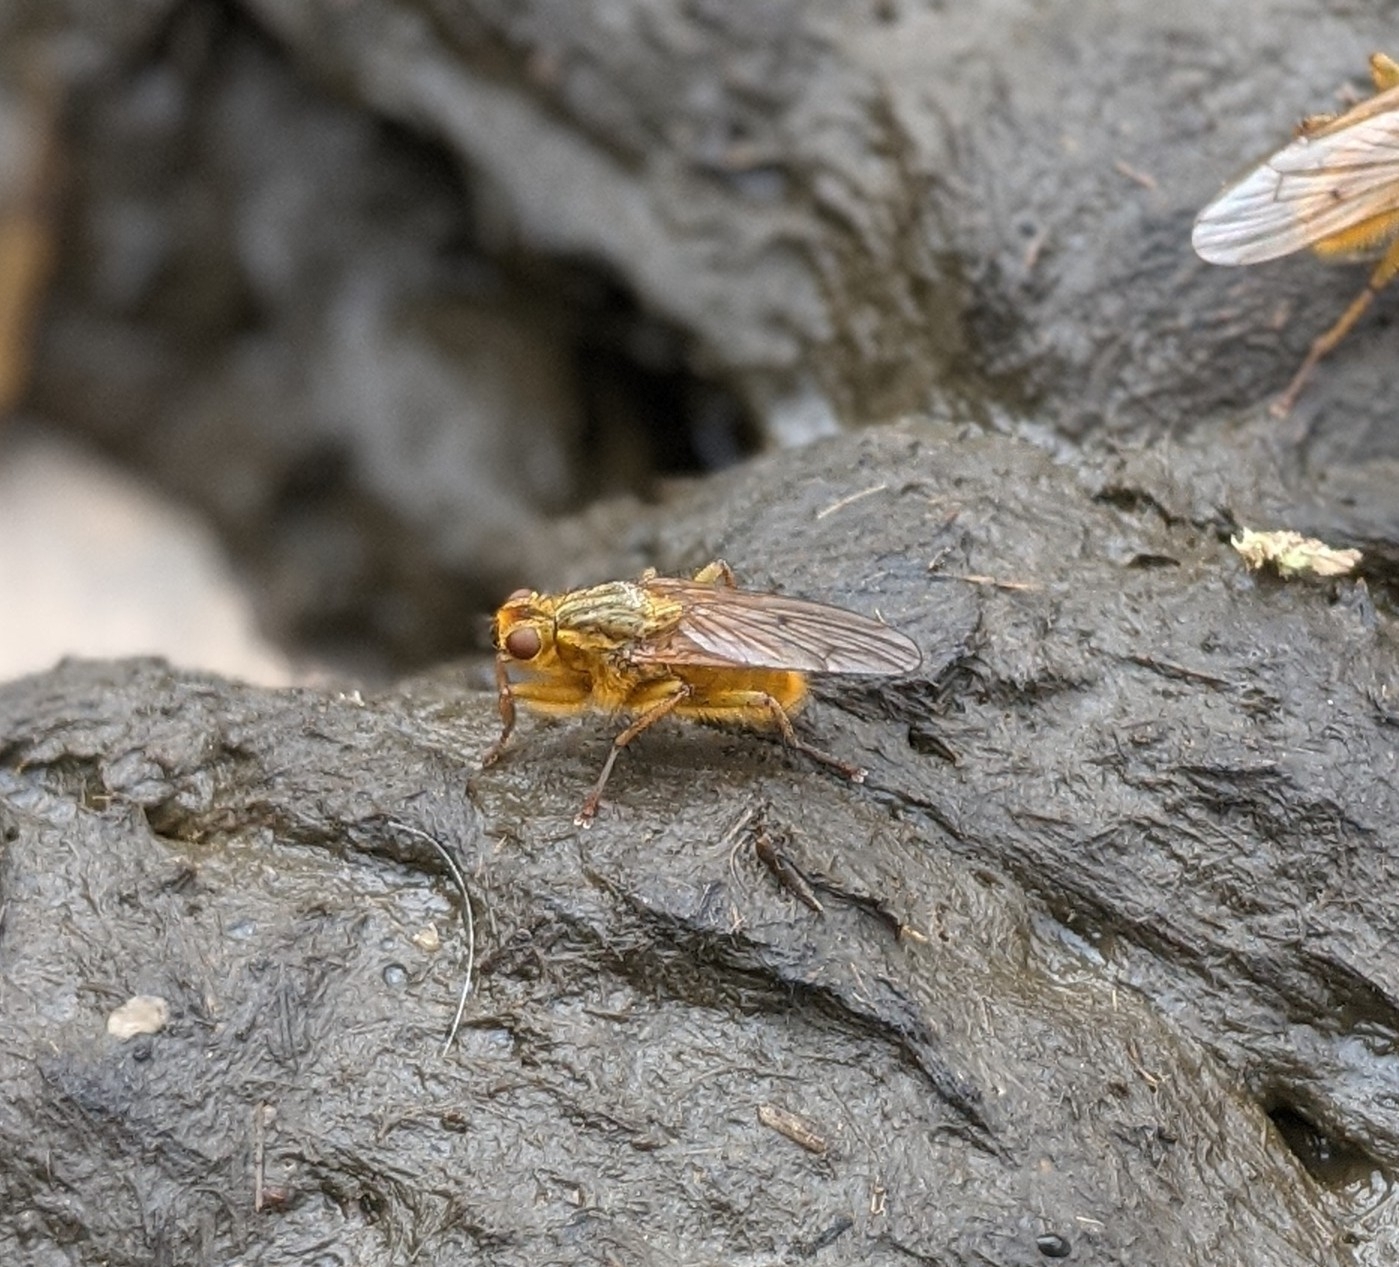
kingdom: Animalia
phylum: Arthropoda
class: Insecta
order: Diptera
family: Scathophagidae
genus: Scathophaga
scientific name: Scathophaga stercoraria
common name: Yellow dung fly
